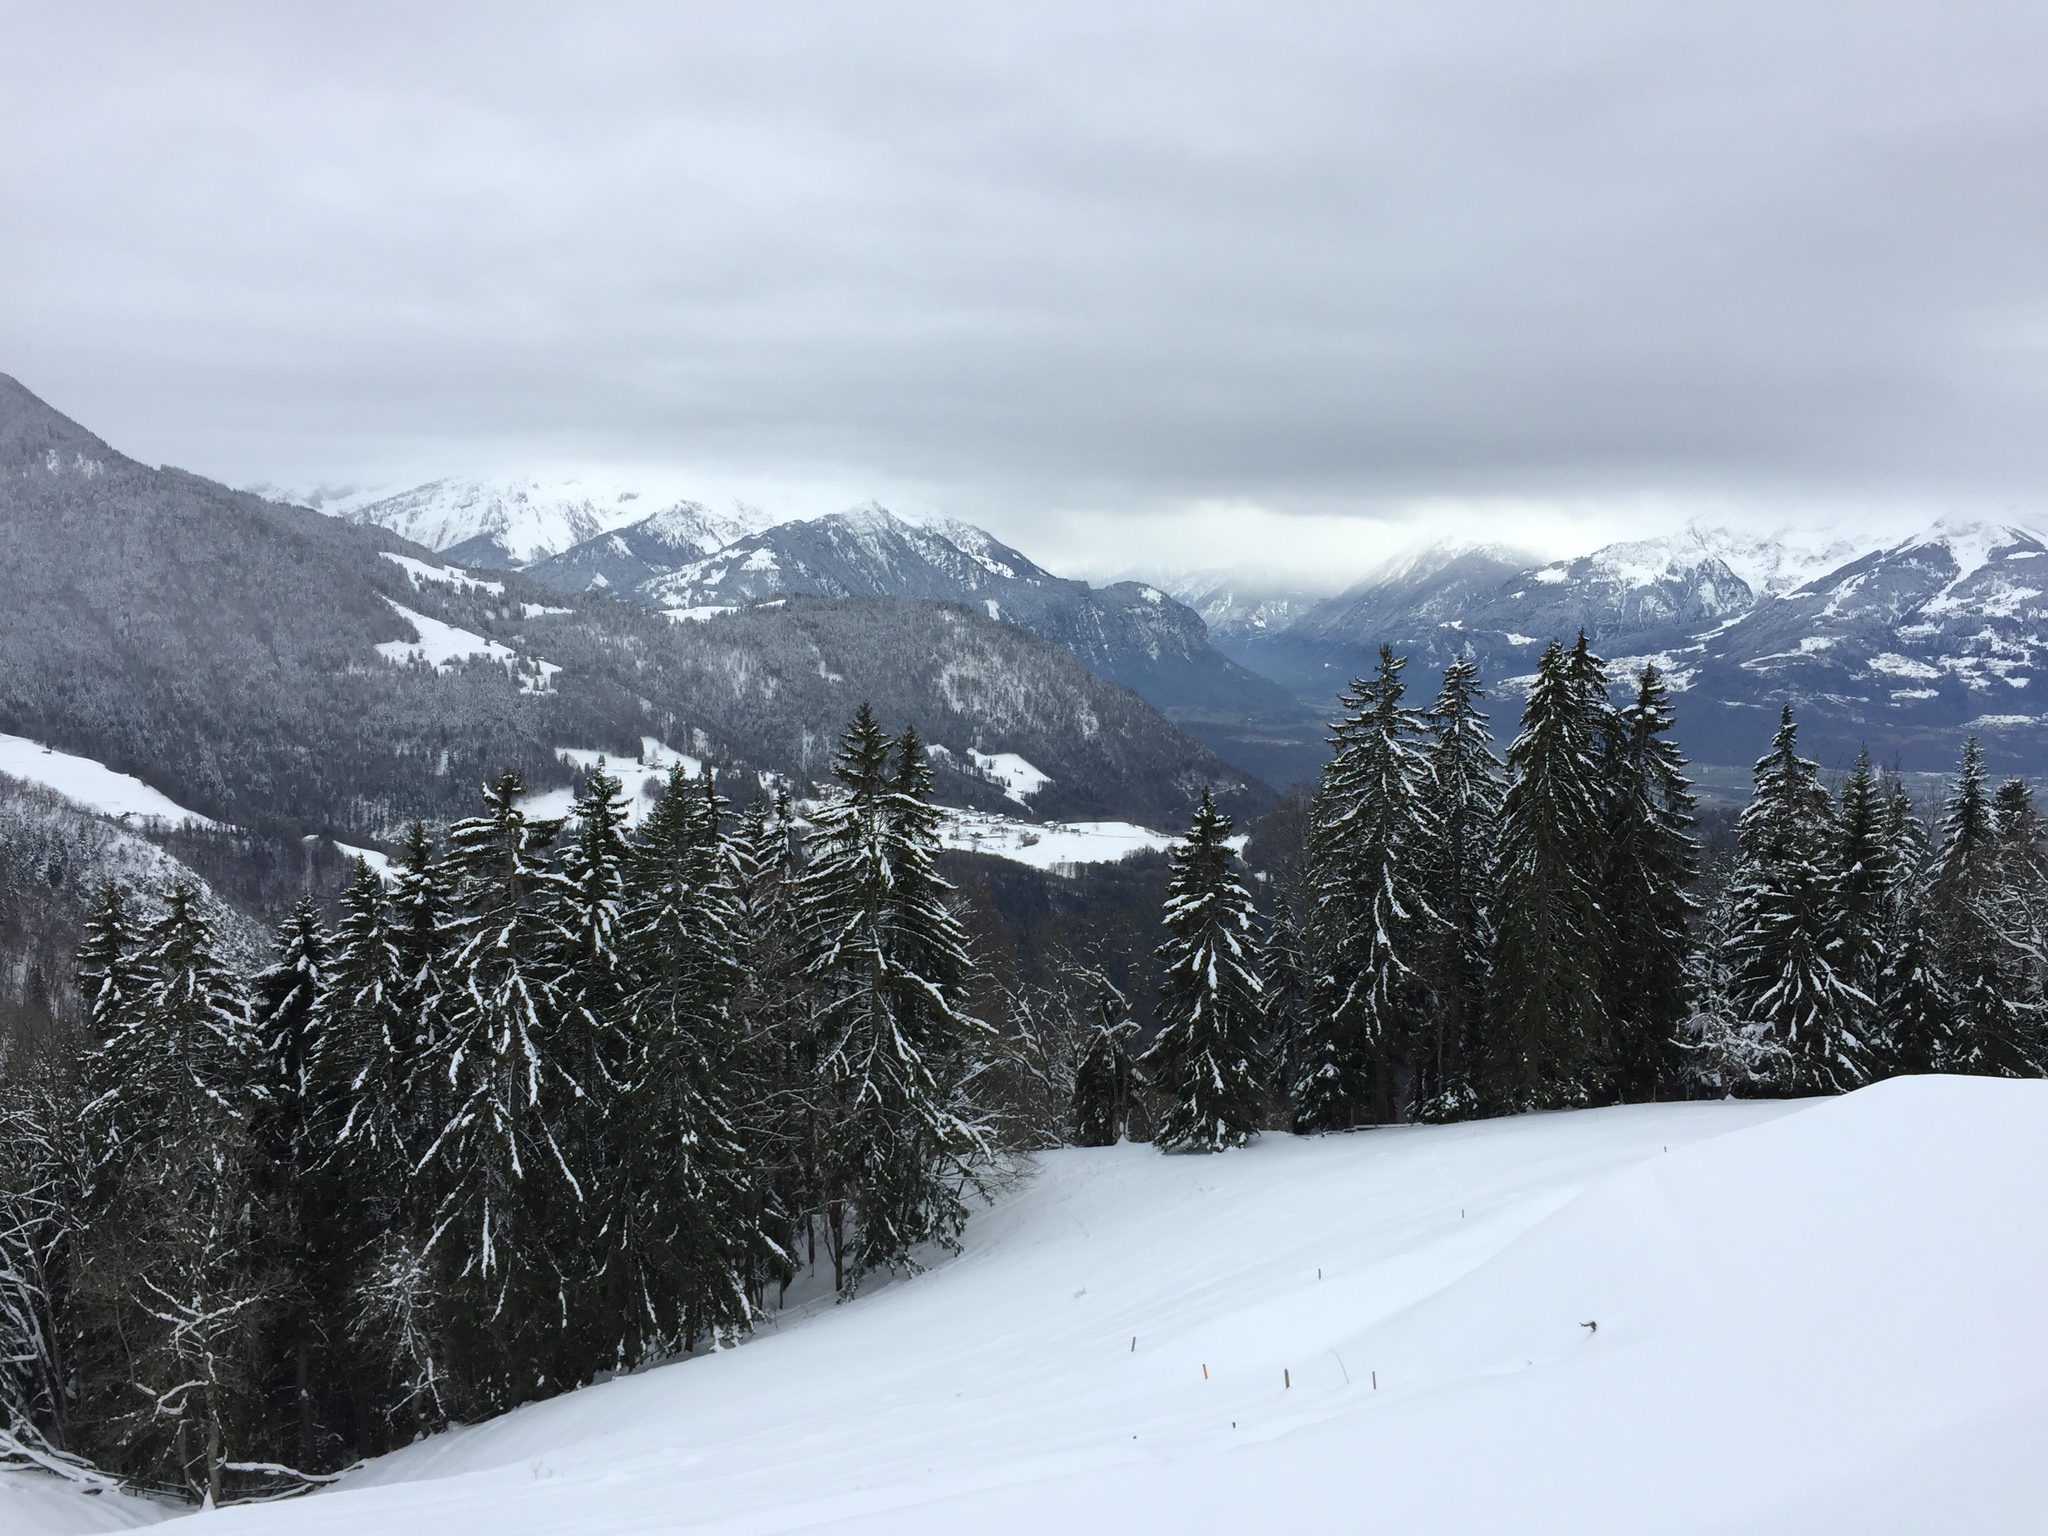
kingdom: Plantae
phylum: Tracheophyta
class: Pinopsida
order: Pinales
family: Pinaceae
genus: Picea
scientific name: Picea abies
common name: Norway spruce
